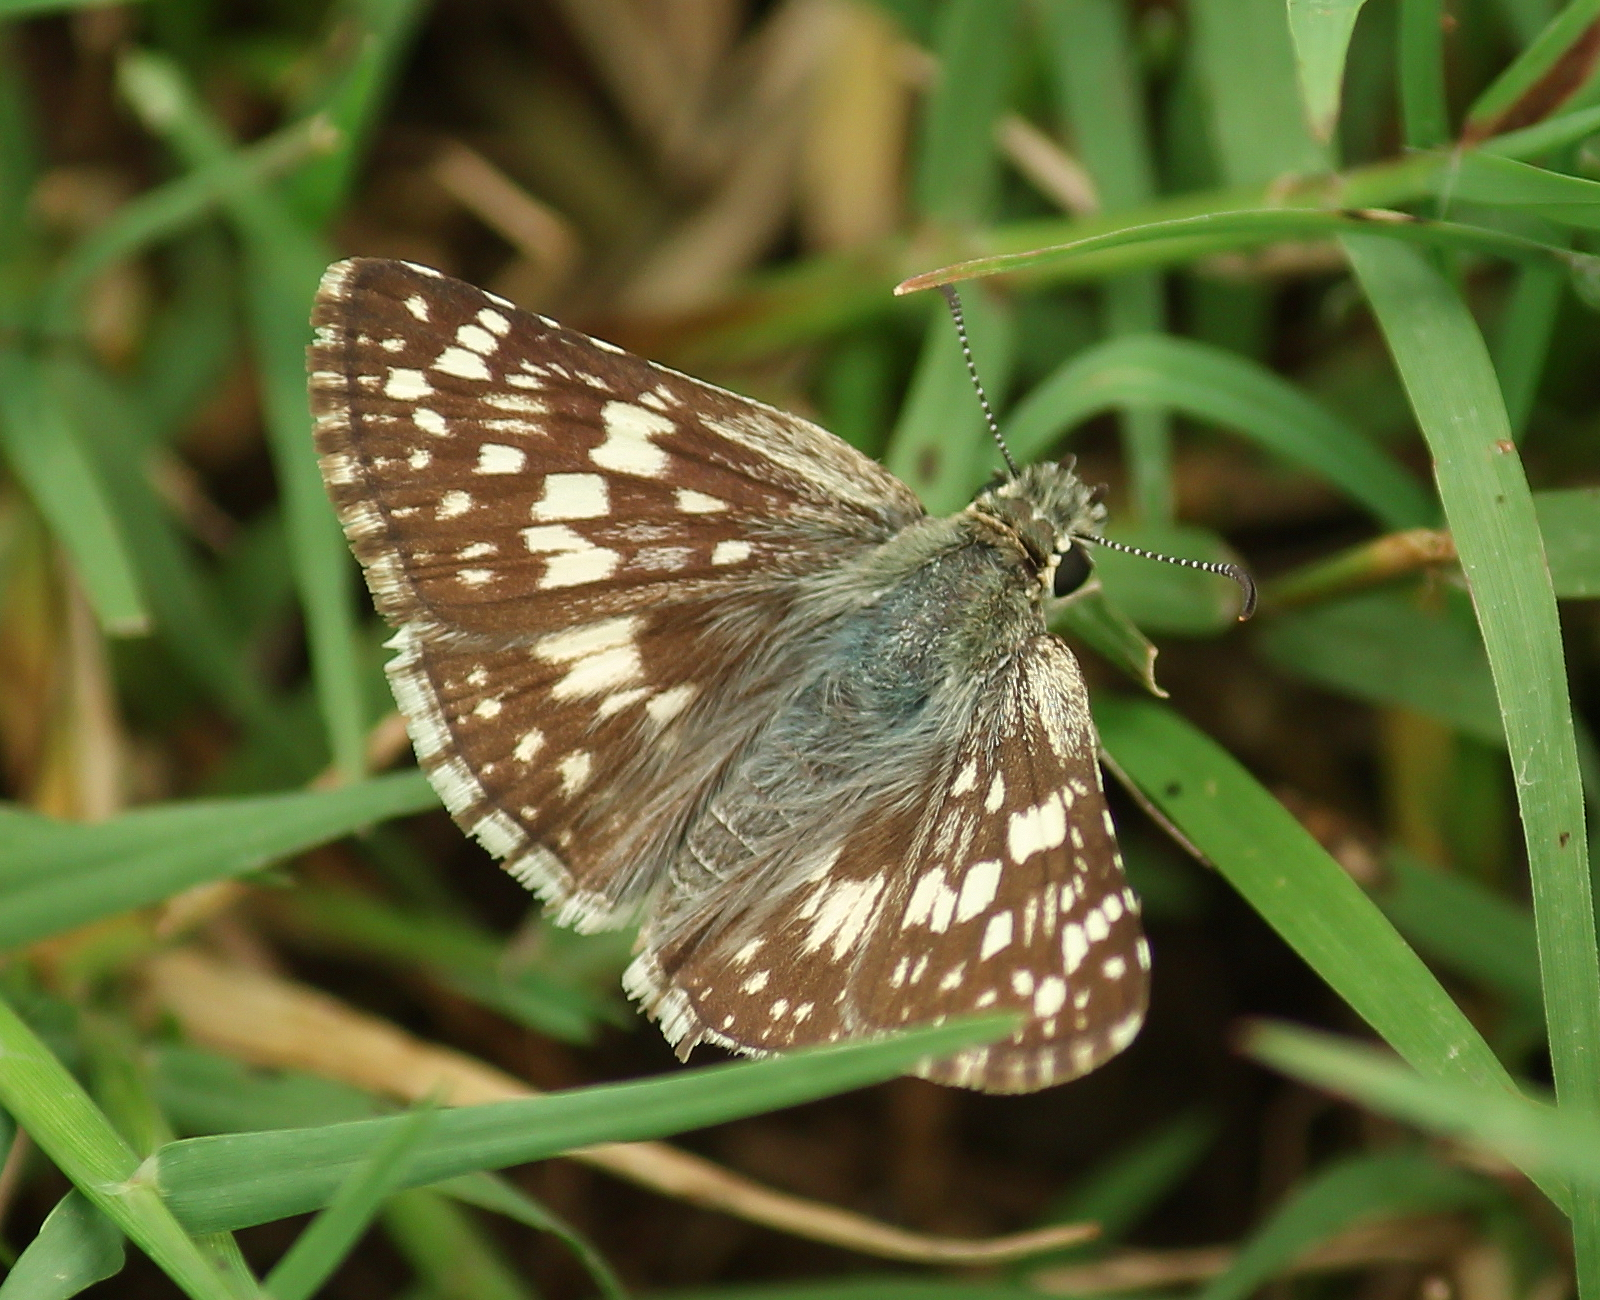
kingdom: Animalia
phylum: Arthropoda
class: Insecta
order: Lepidoptera
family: Hesperiidae
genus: Burnsius
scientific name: Burnsius communis
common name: Common checkered-skipper
